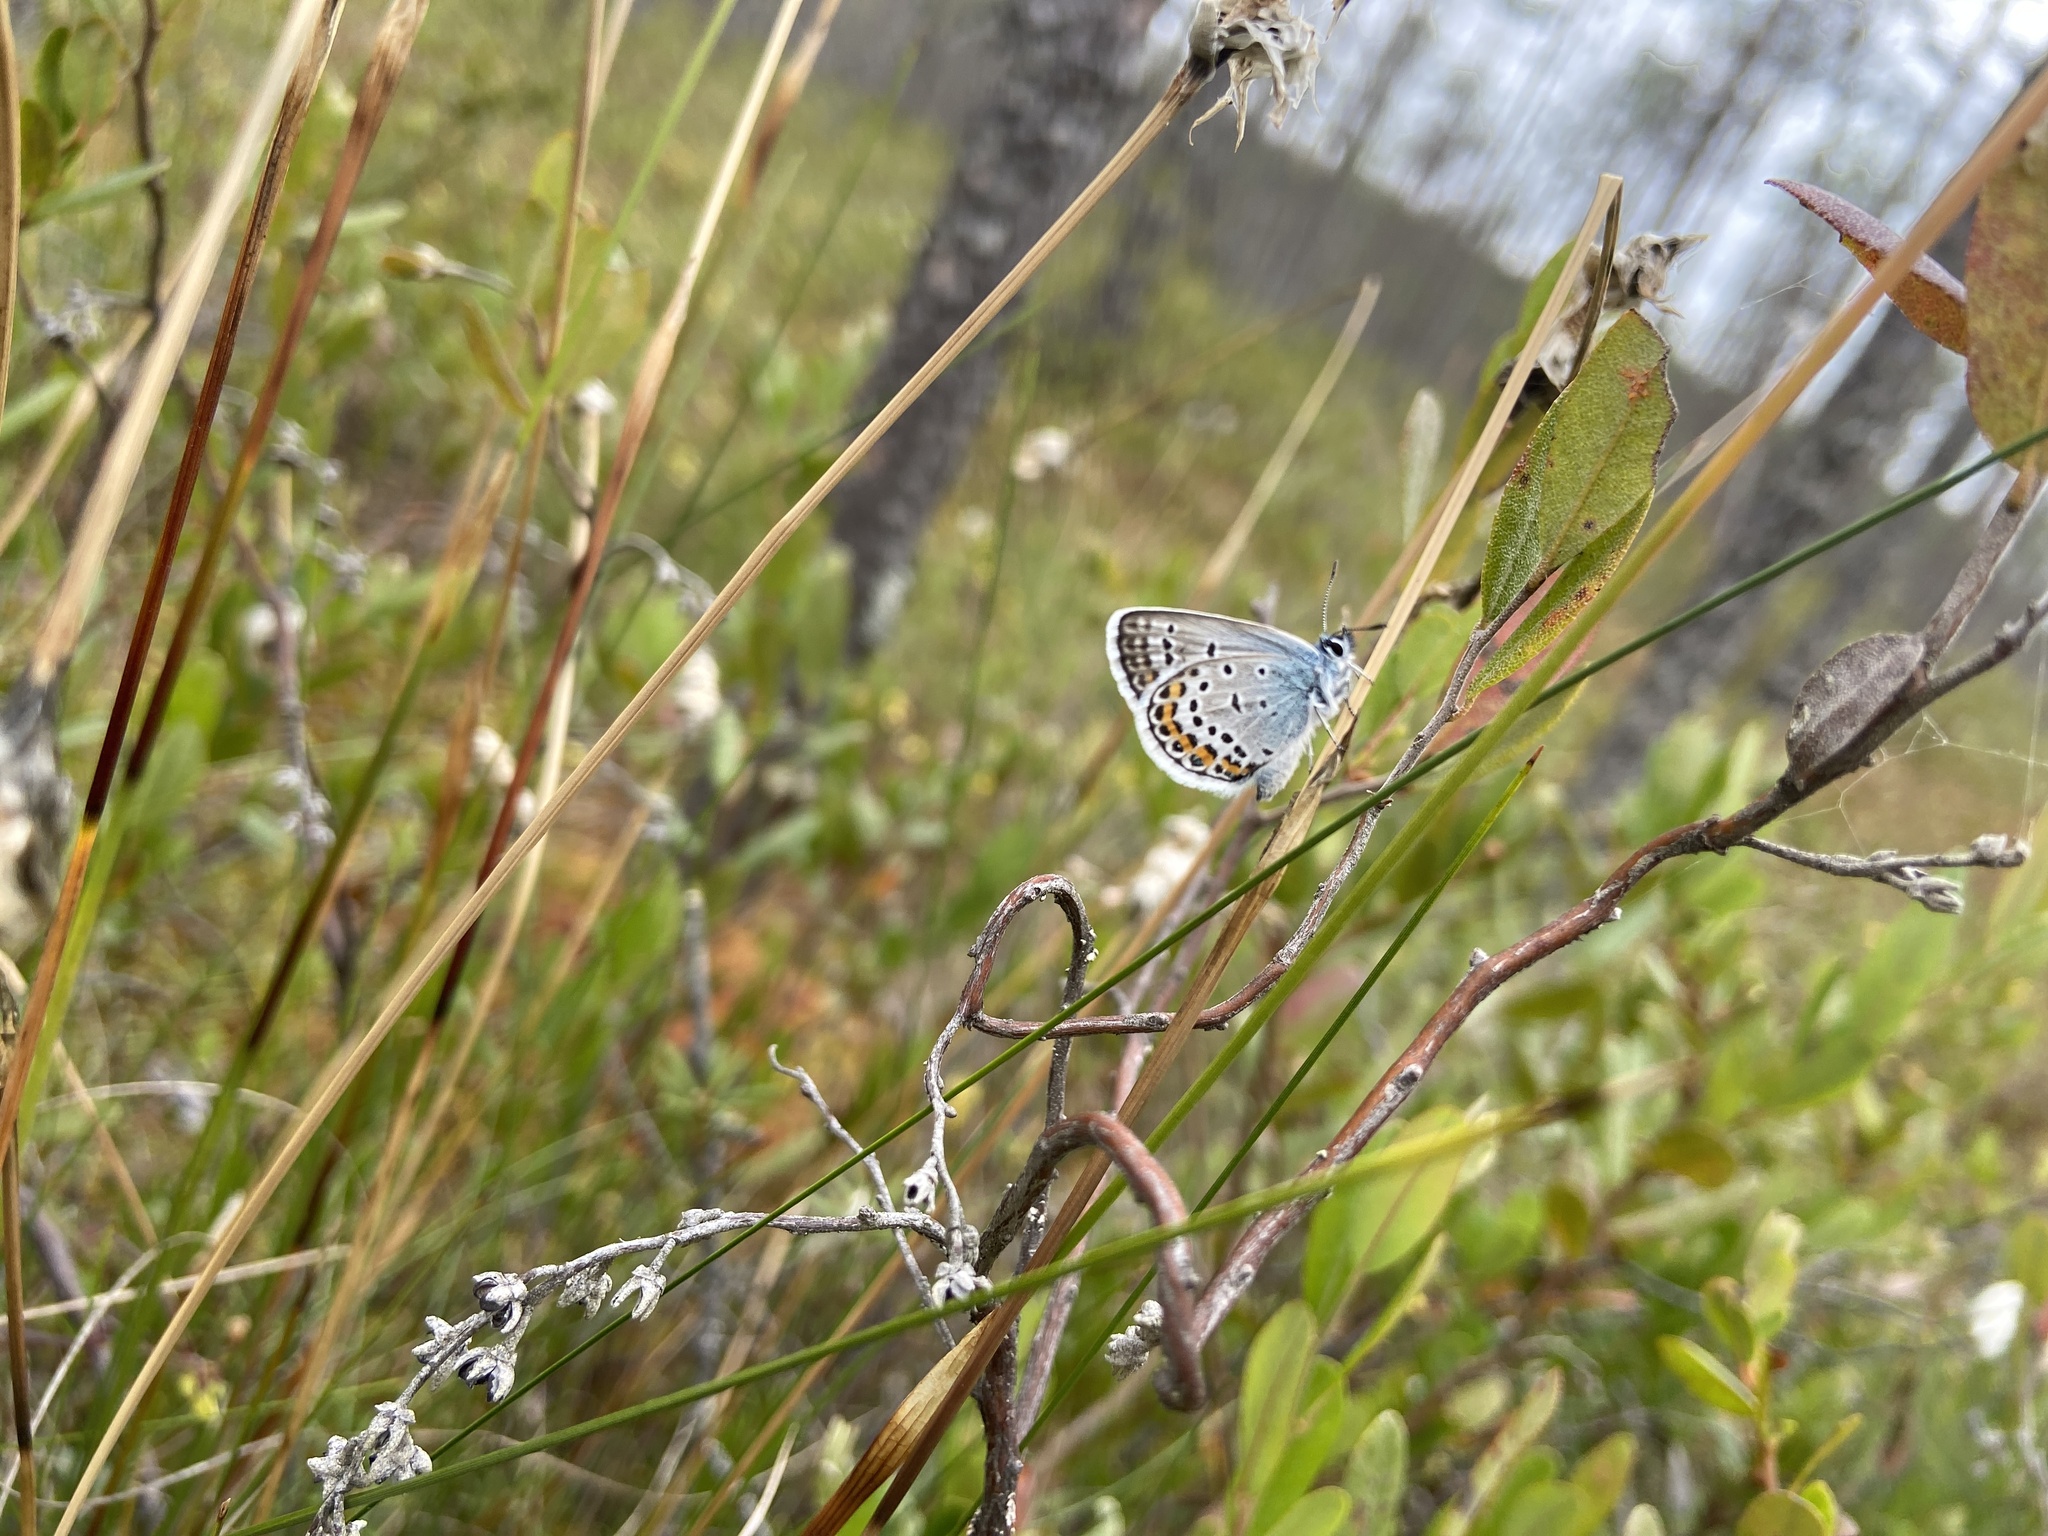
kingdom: Animalia
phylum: Arthropoda
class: Insecta
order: Lepidoptera
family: Lycaenidae
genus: Plebejus
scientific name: Plebejus argus
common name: Silver-studded blue
